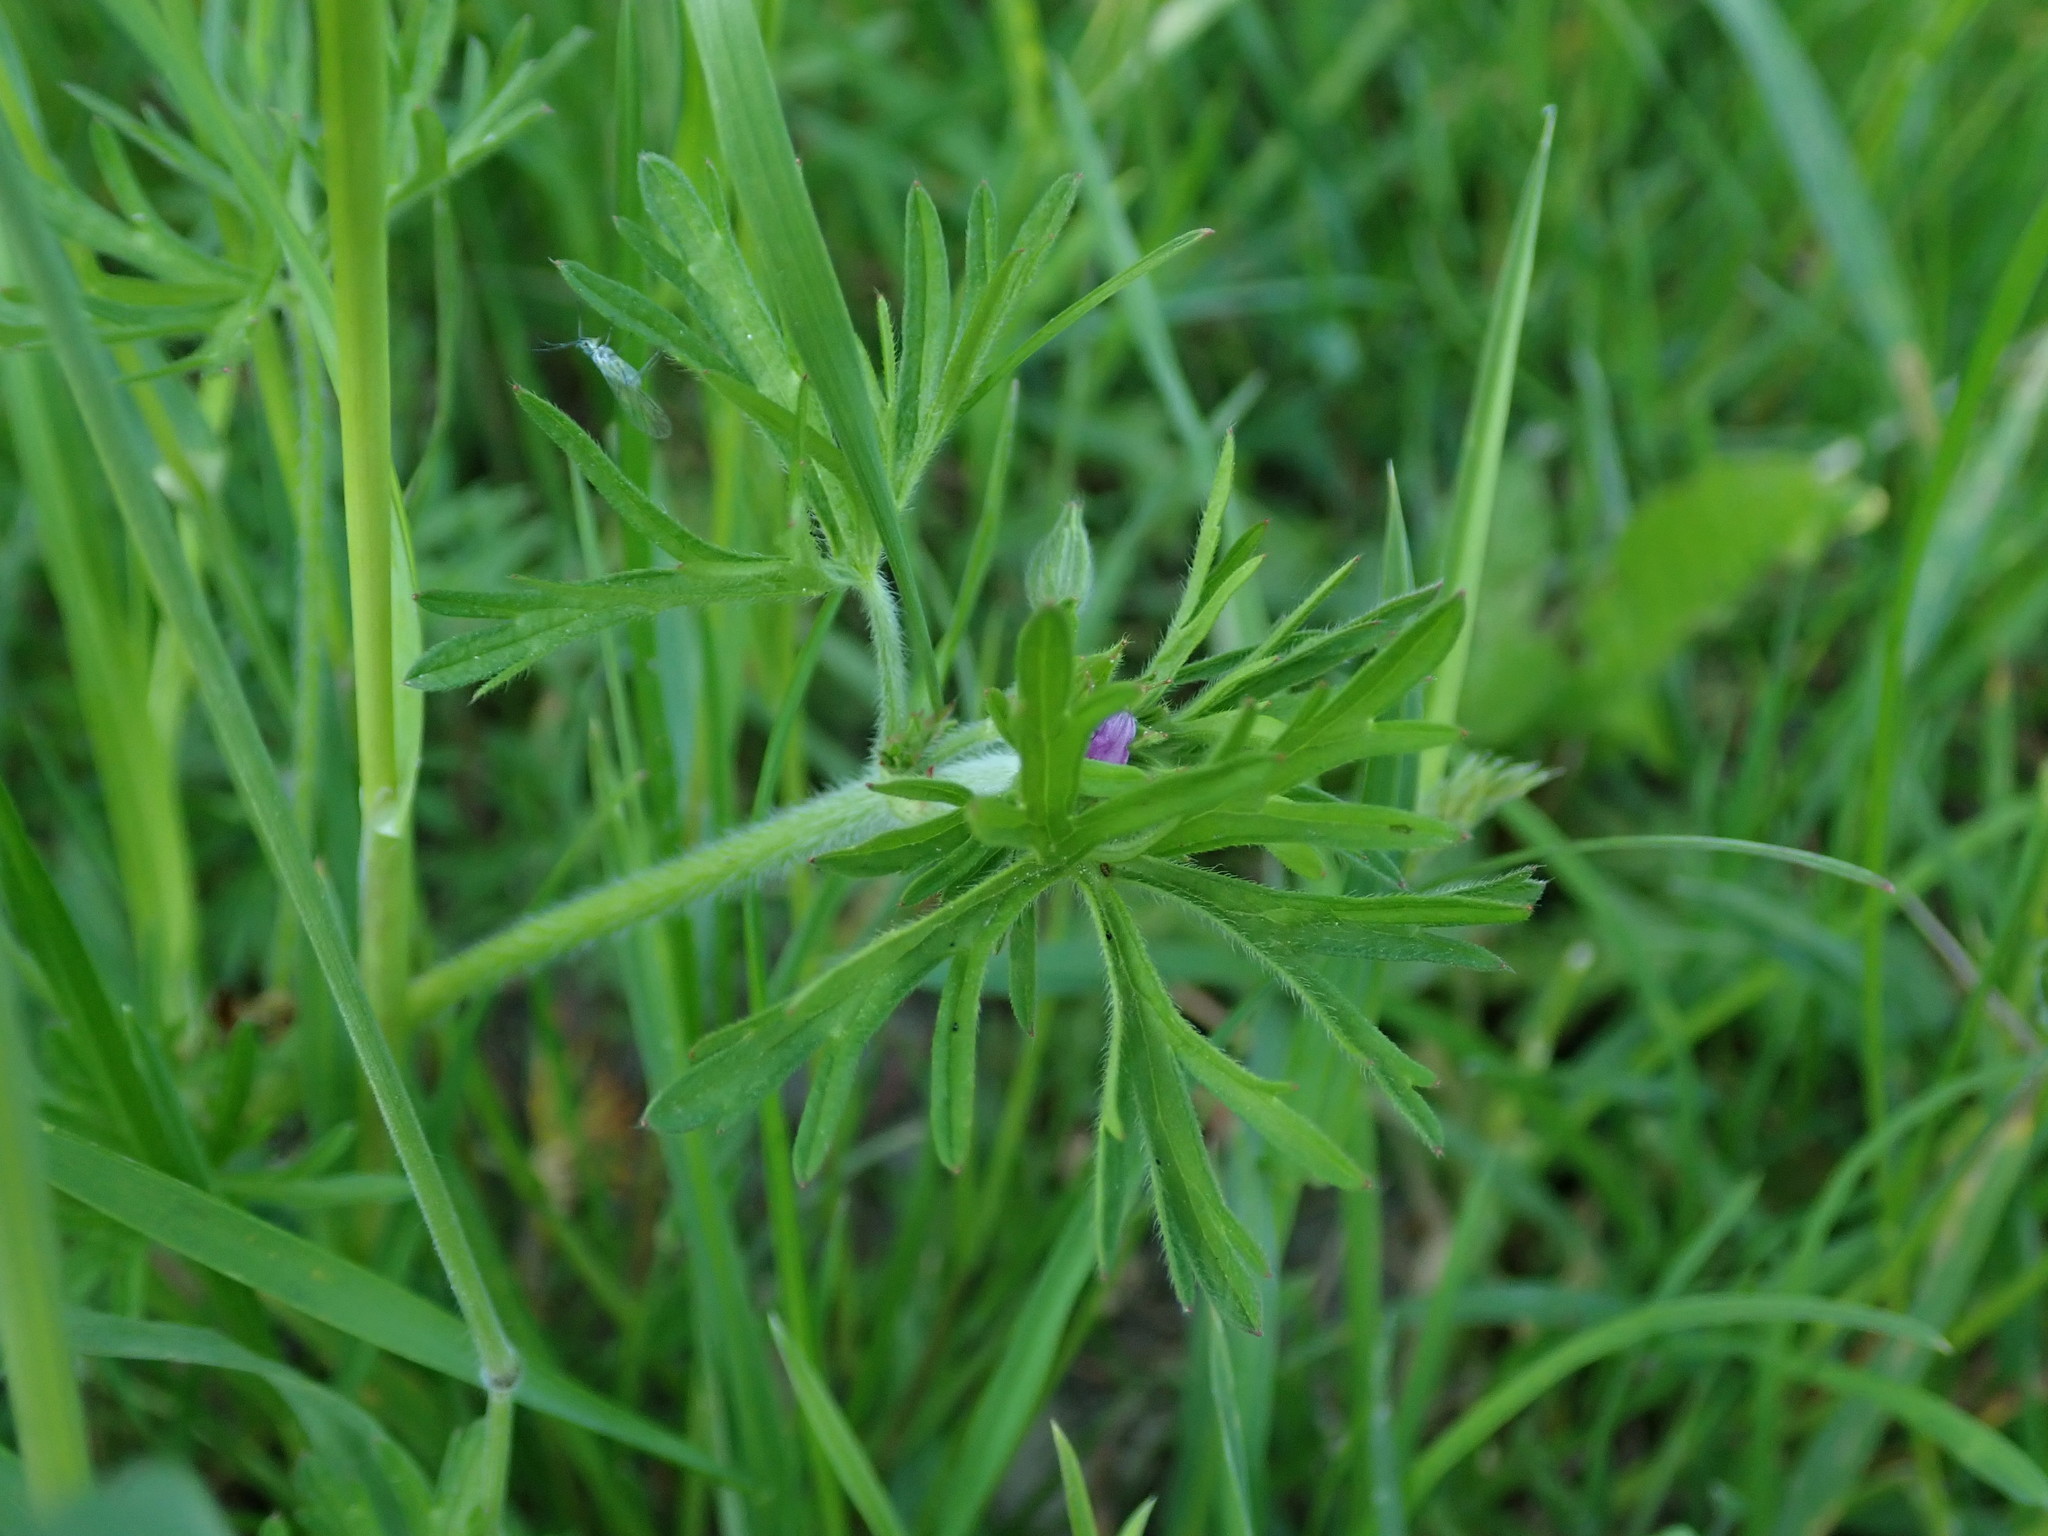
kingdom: Plantae
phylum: Tracheophyta
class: Magnoliopsida
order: Geraniales
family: Geraniaceae
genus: Geranium
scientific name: Geranium dissectum
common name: Cut-leaved crane's-bill
